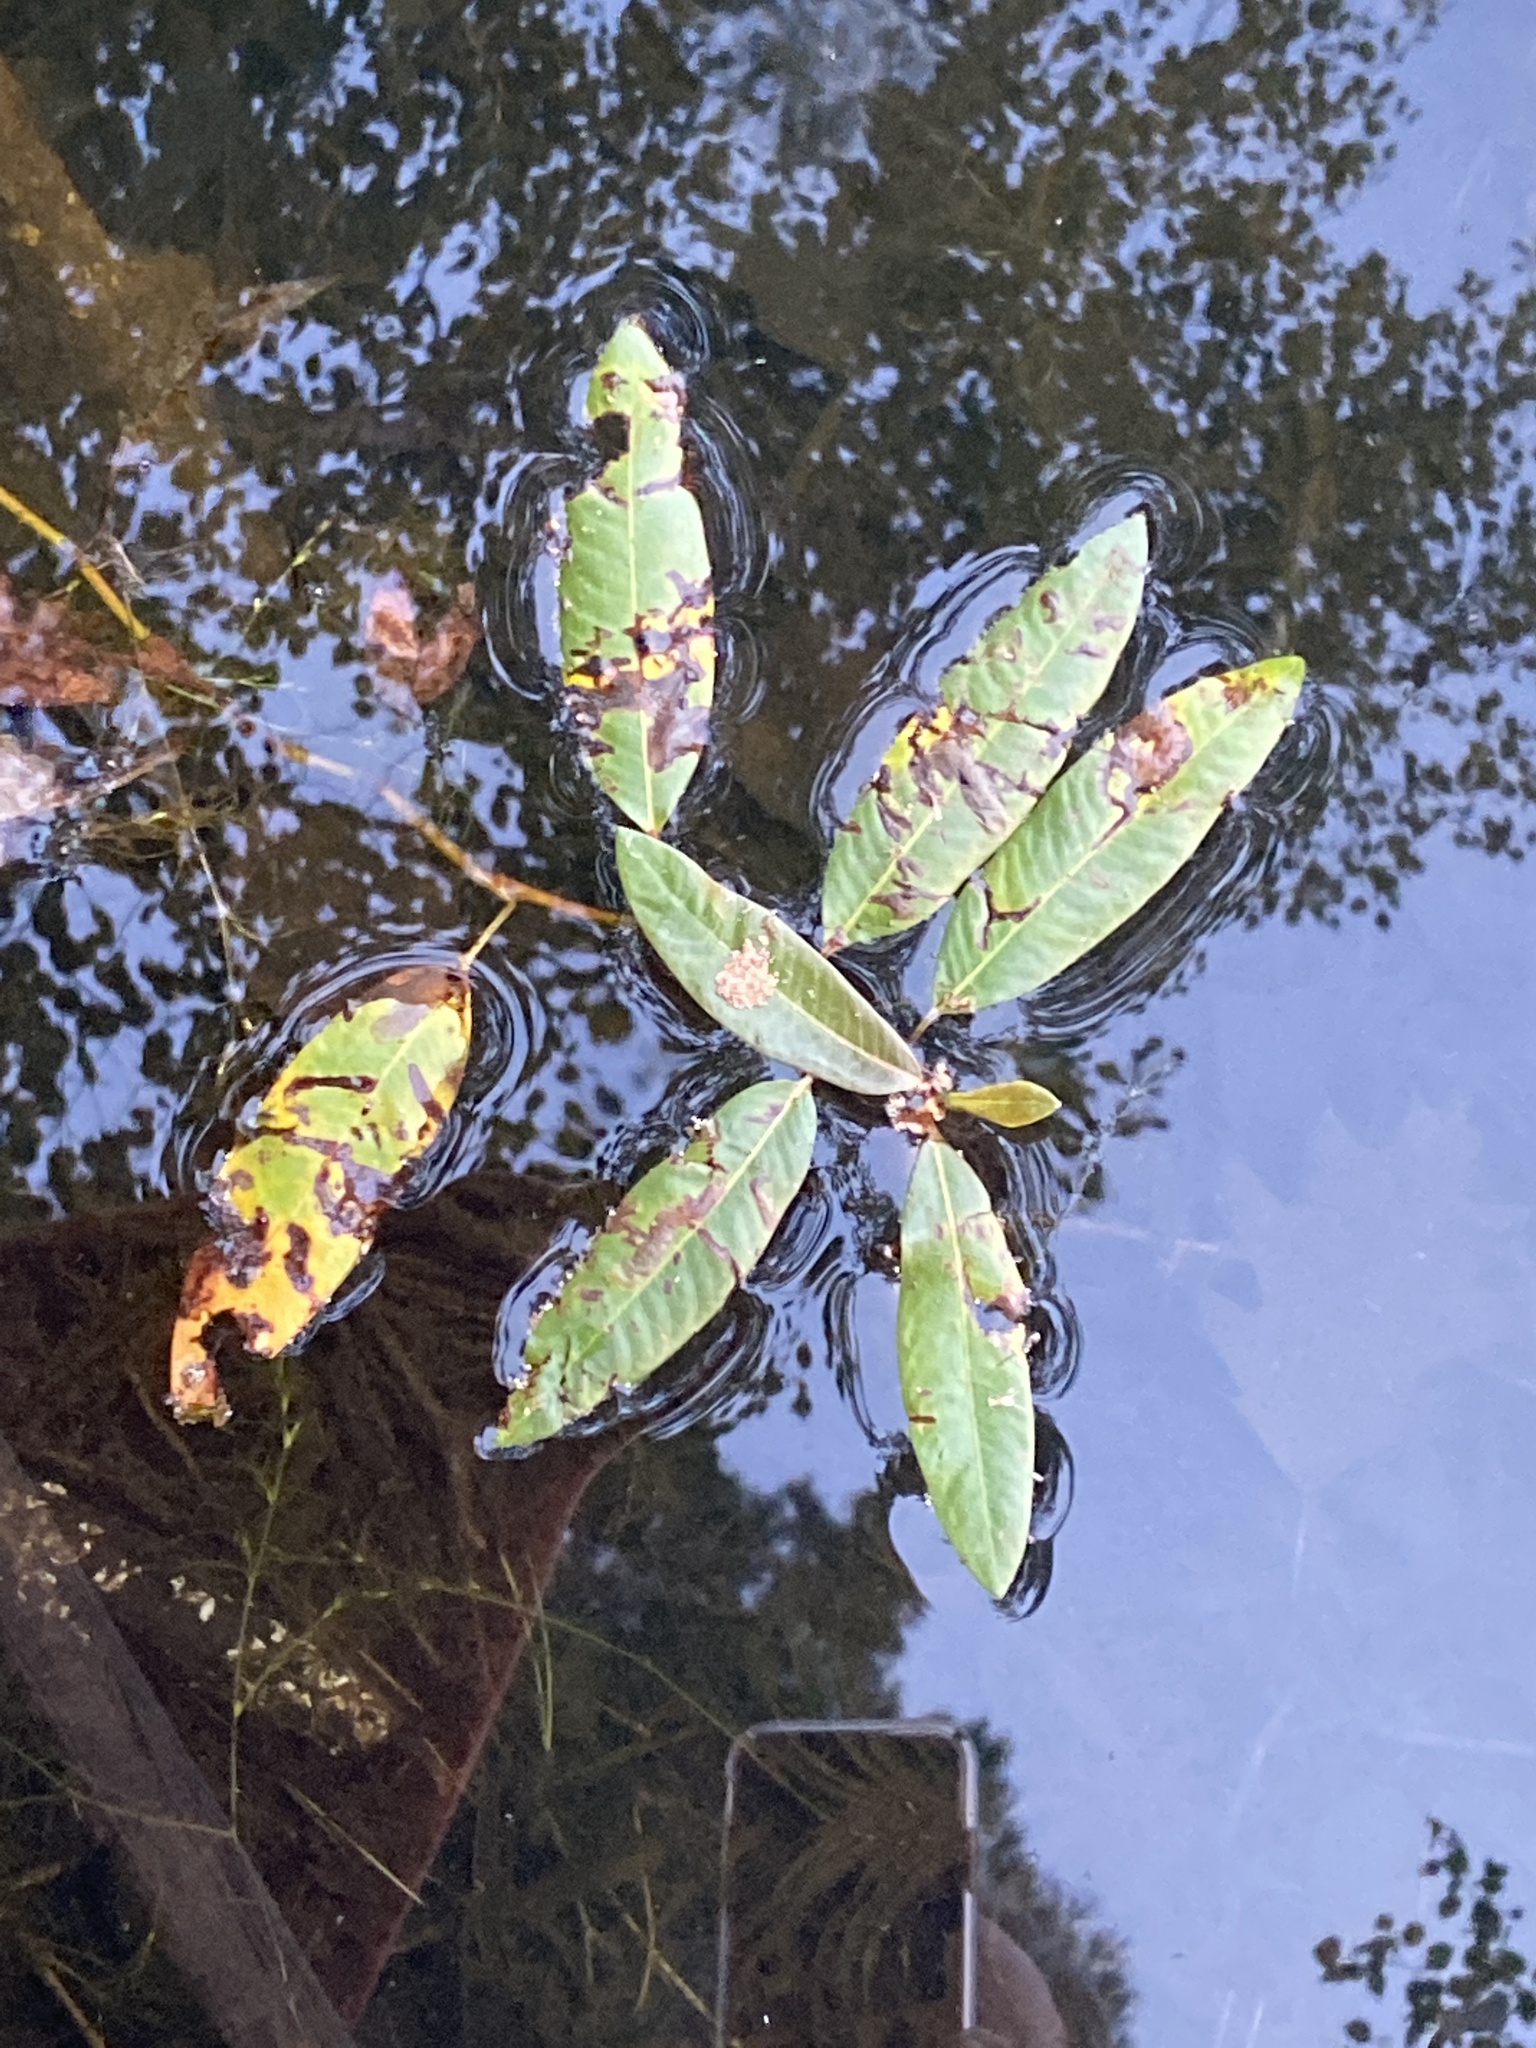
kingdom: Plantae
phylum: Tracheophyta
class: Magnoliopsida
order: Caryophyllales
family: Polygonaceae
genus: Persicaria
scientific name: Persicaria amphibia
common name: Amphibious bistort
